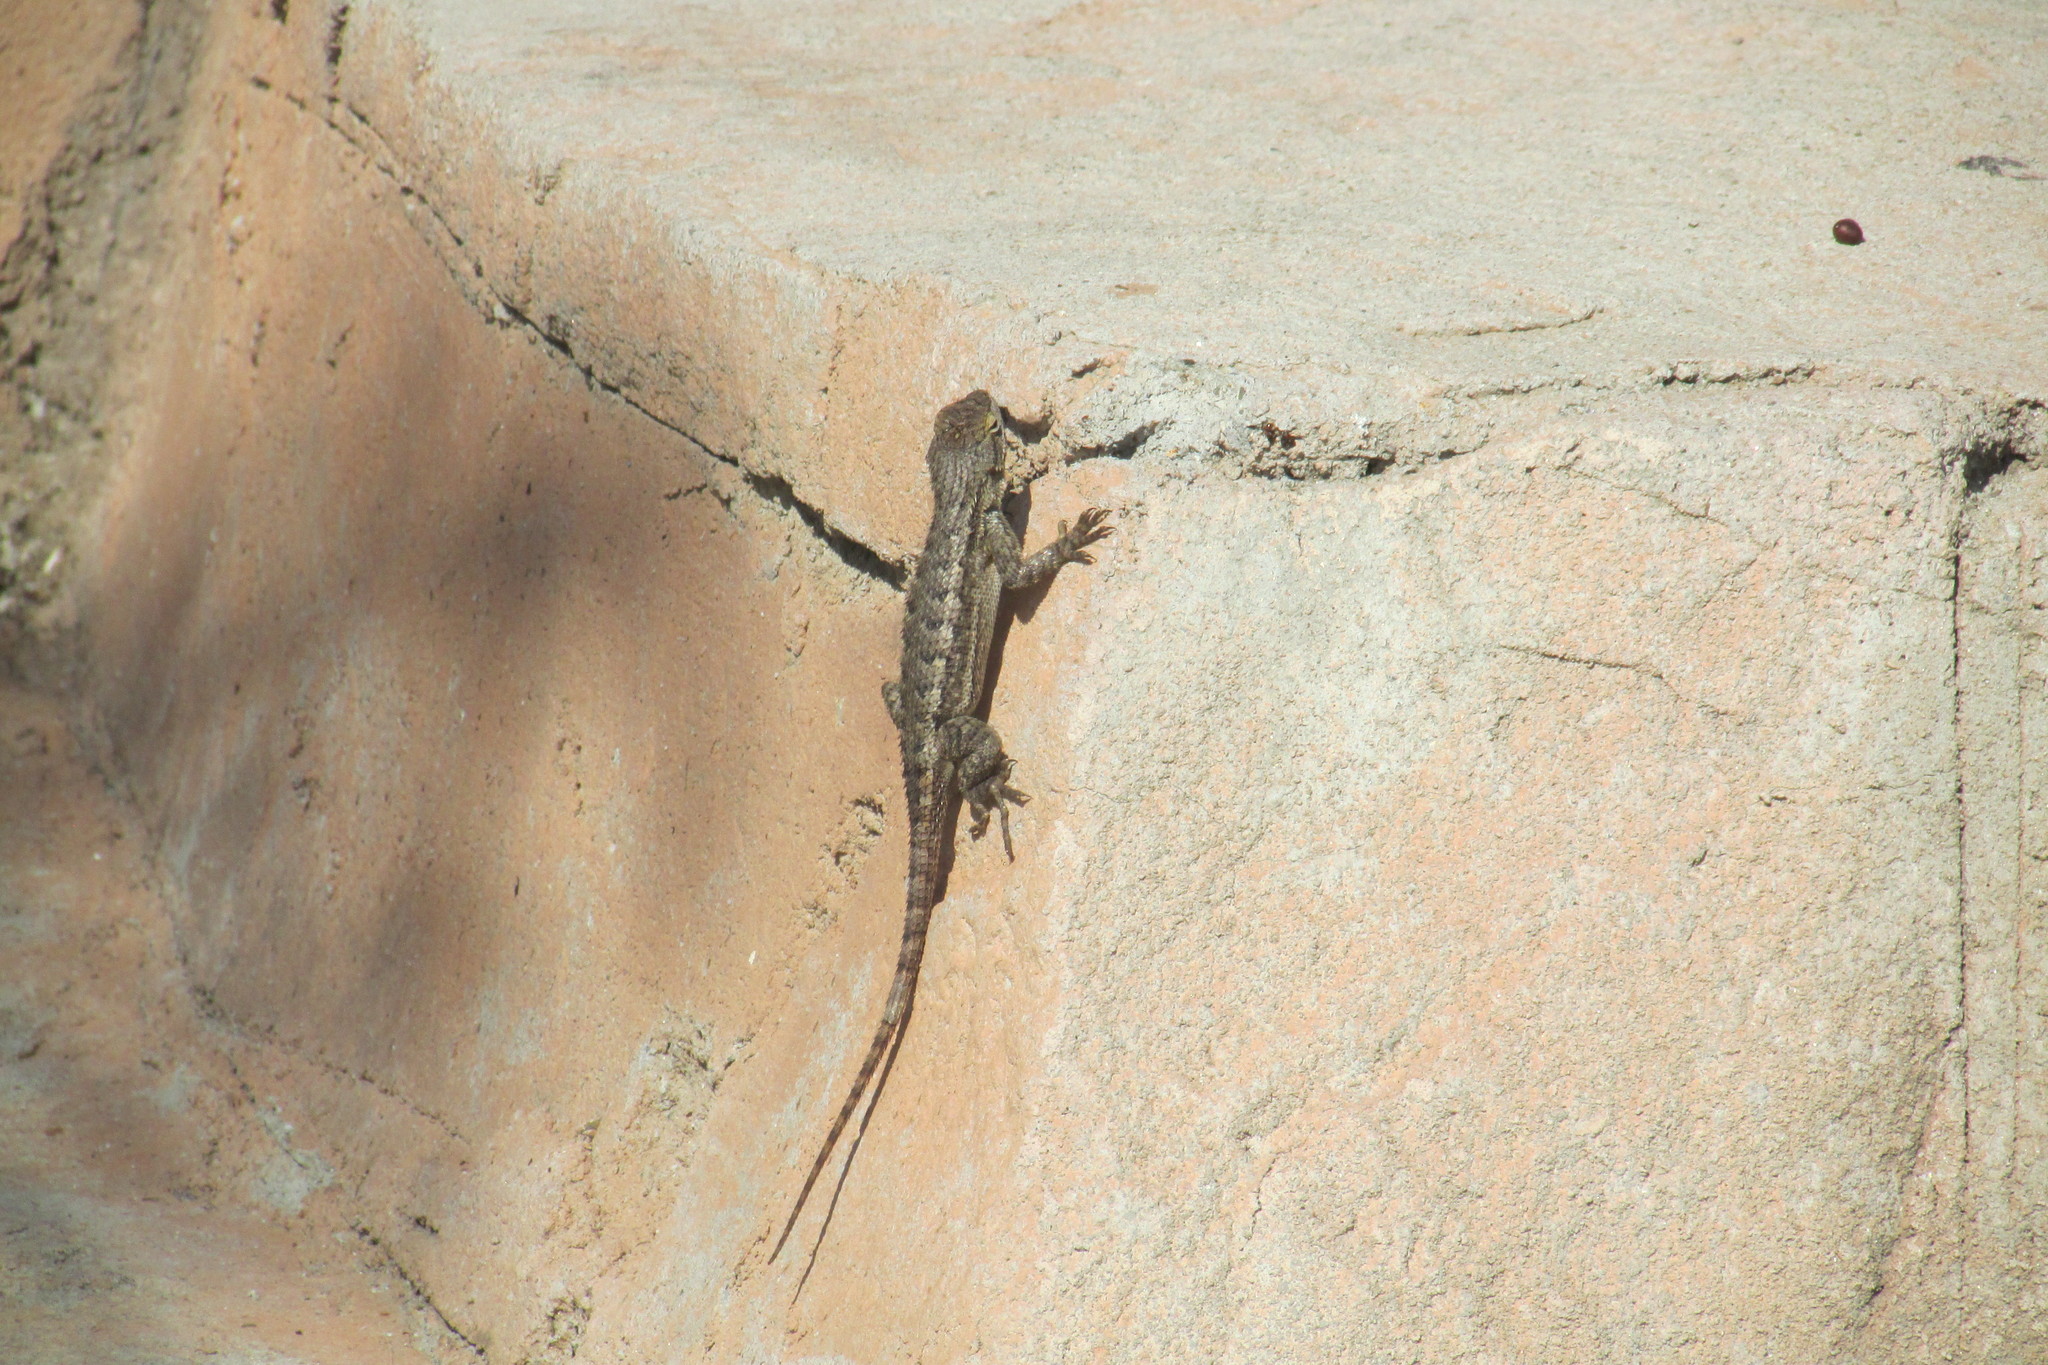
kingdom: Animalia
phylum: Chordata
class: Squamata
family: Phrynosomatidae
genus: Sceloporus
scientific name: Sceloporus occidentalis
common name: Western fence lizard
